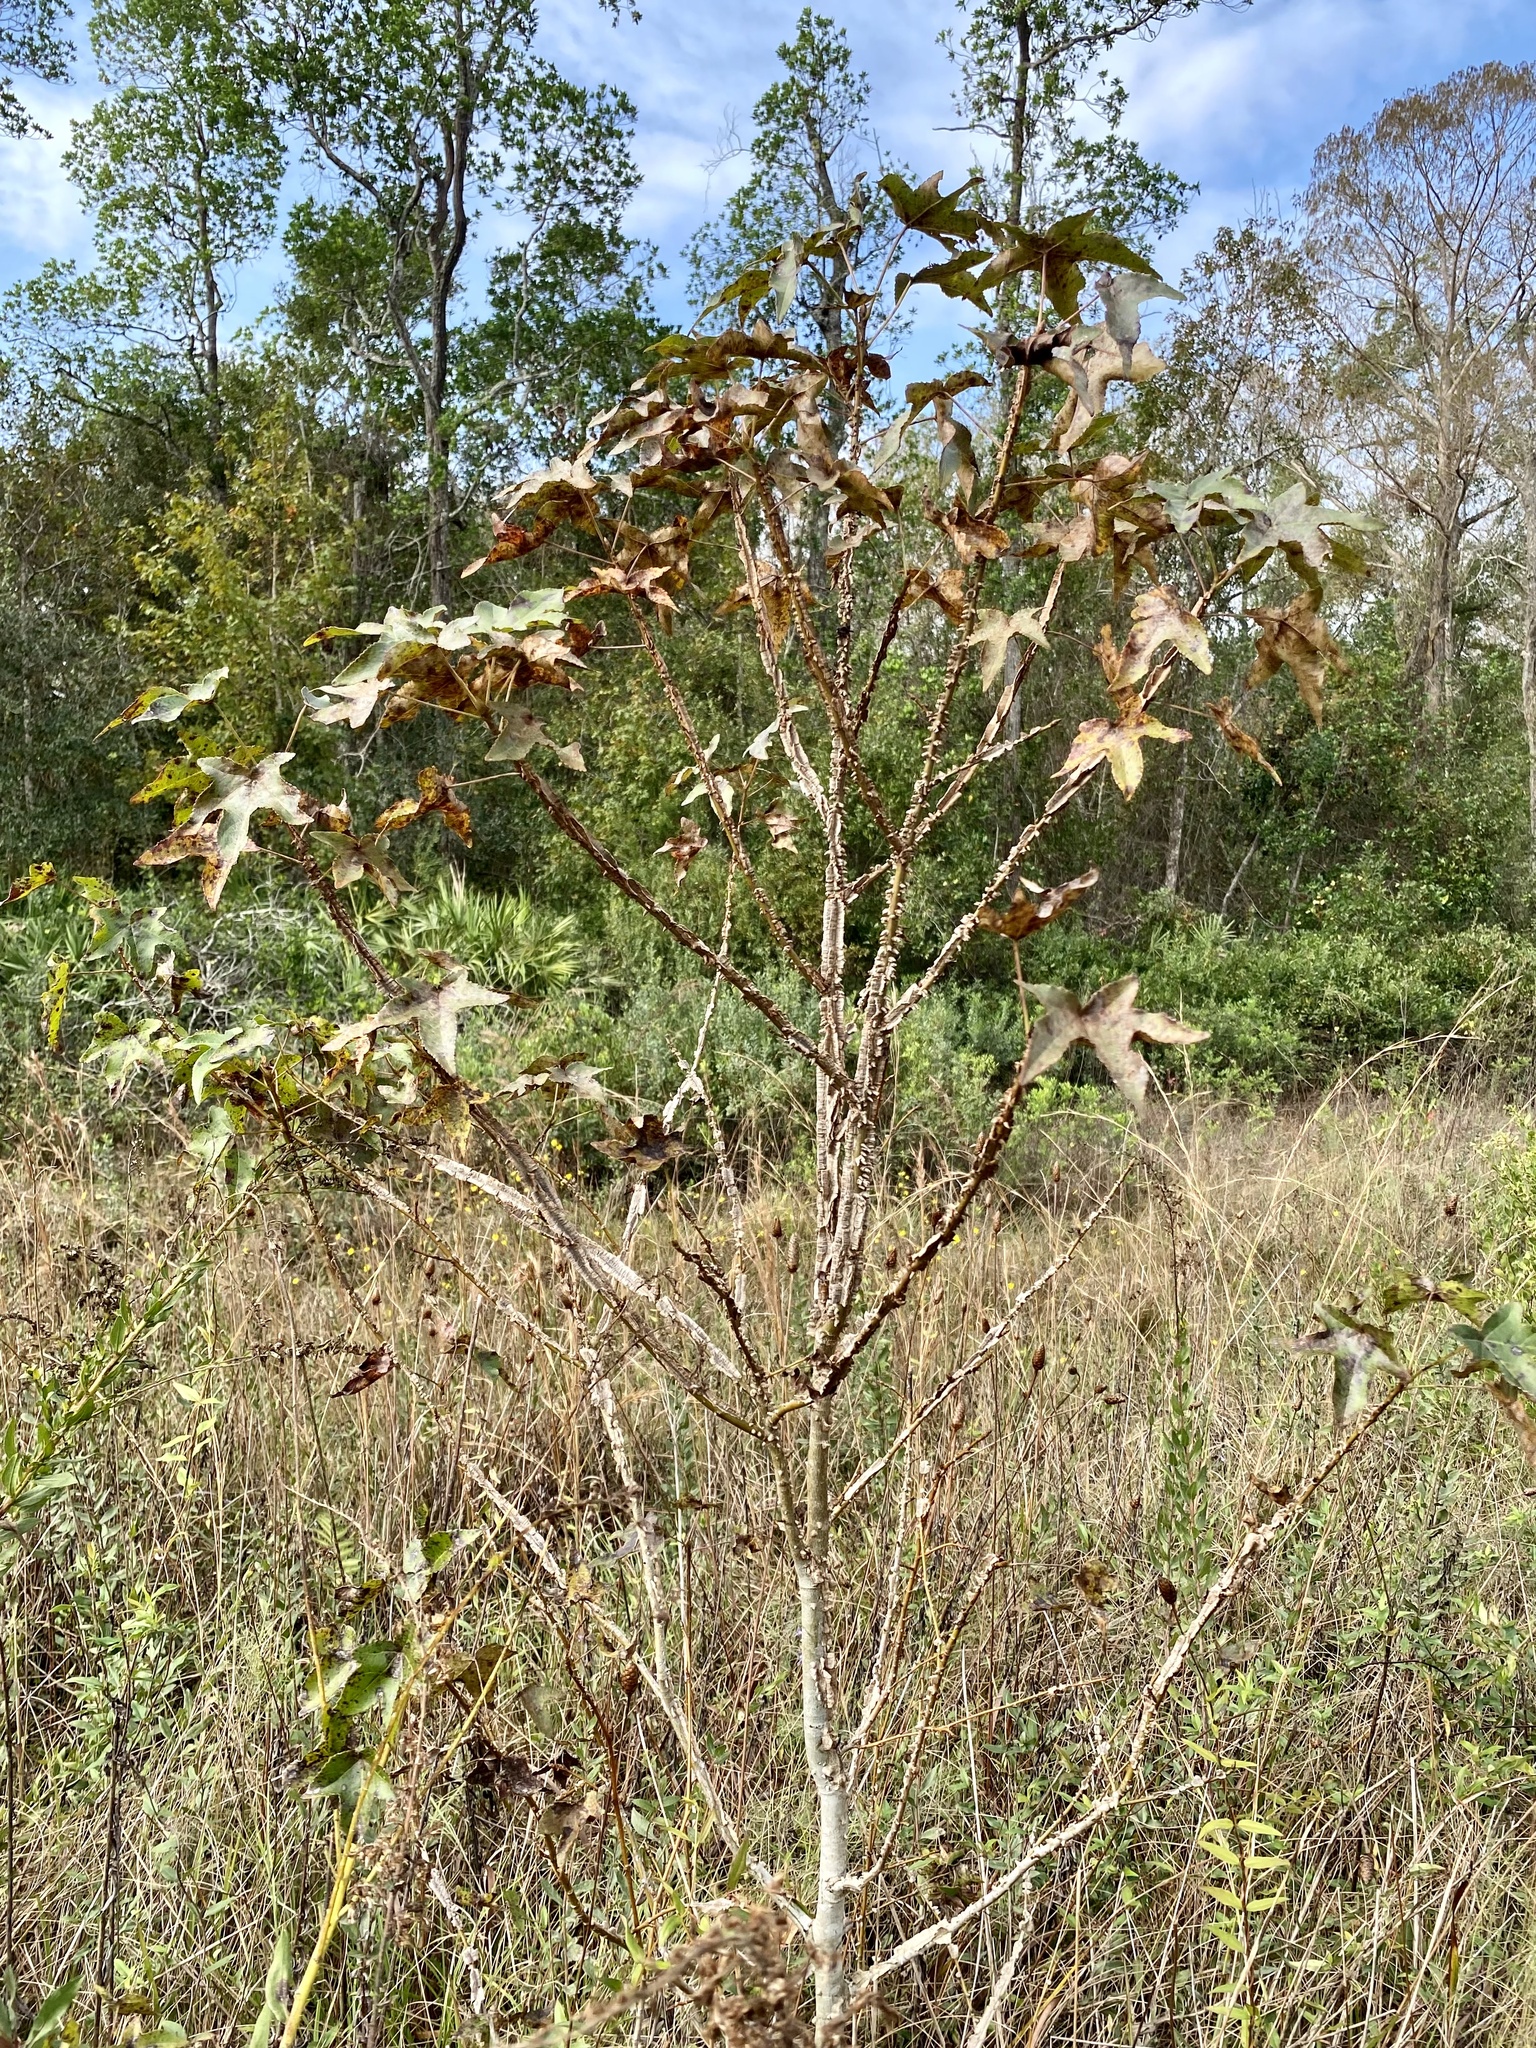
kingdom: Plantae
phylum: Tracheophyta
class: Magnoliopsida
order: Saxifragales
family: Altingiaceae
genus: Liquidambar
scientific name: Liquidambar styraciflua
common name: Sweet gum
